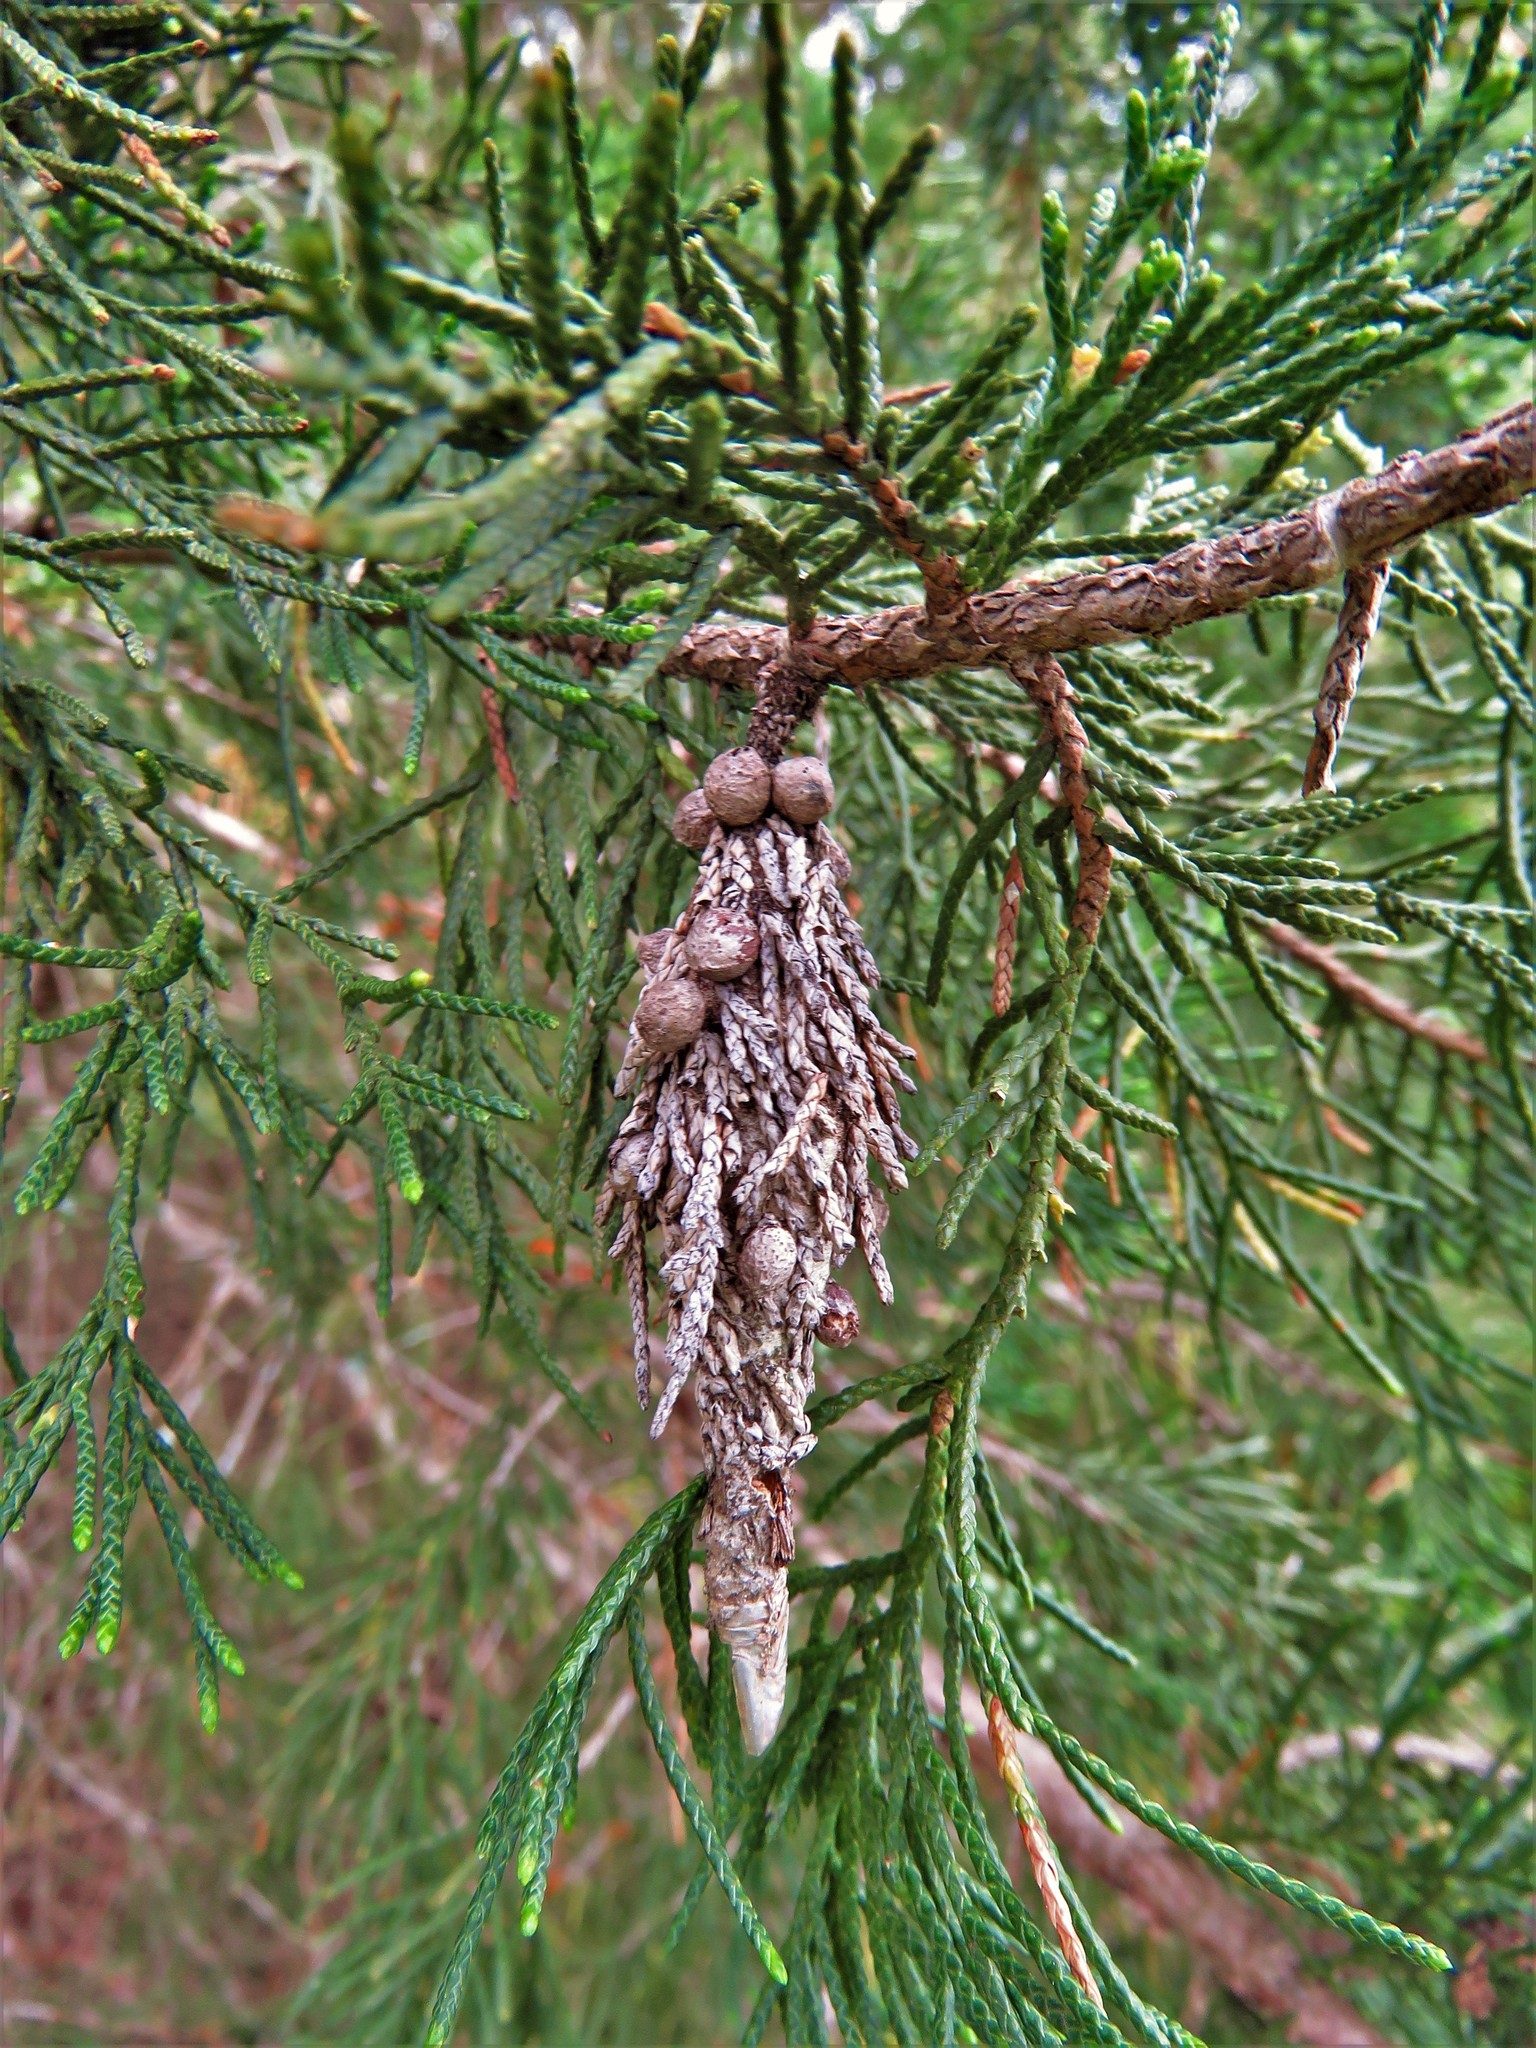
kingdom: Animalia
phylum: Arthropoda
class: Insecta
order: Lepidoptera
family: Psychidae
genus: Thyridopteryx
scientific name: Thyridopteryx ephemeraeformis
